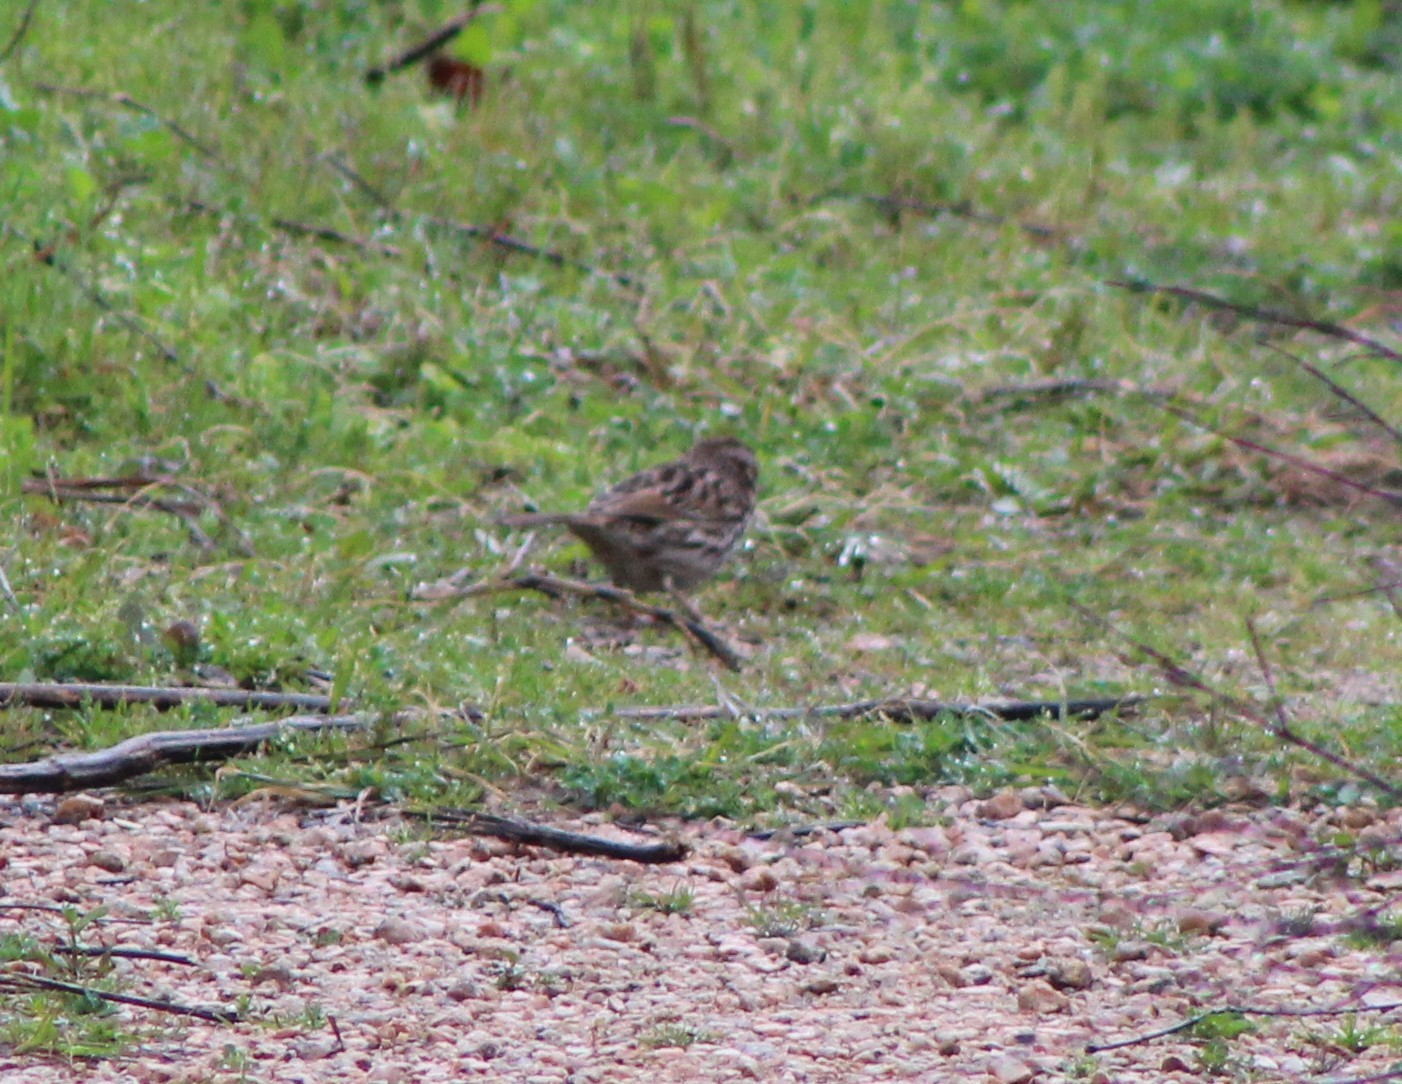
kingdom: Animalia
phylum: Chordata
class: Aves
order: Passeriformes
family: Passerellidae
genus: Melospiza
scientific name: Melospiza melodia
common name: Song sparrow
